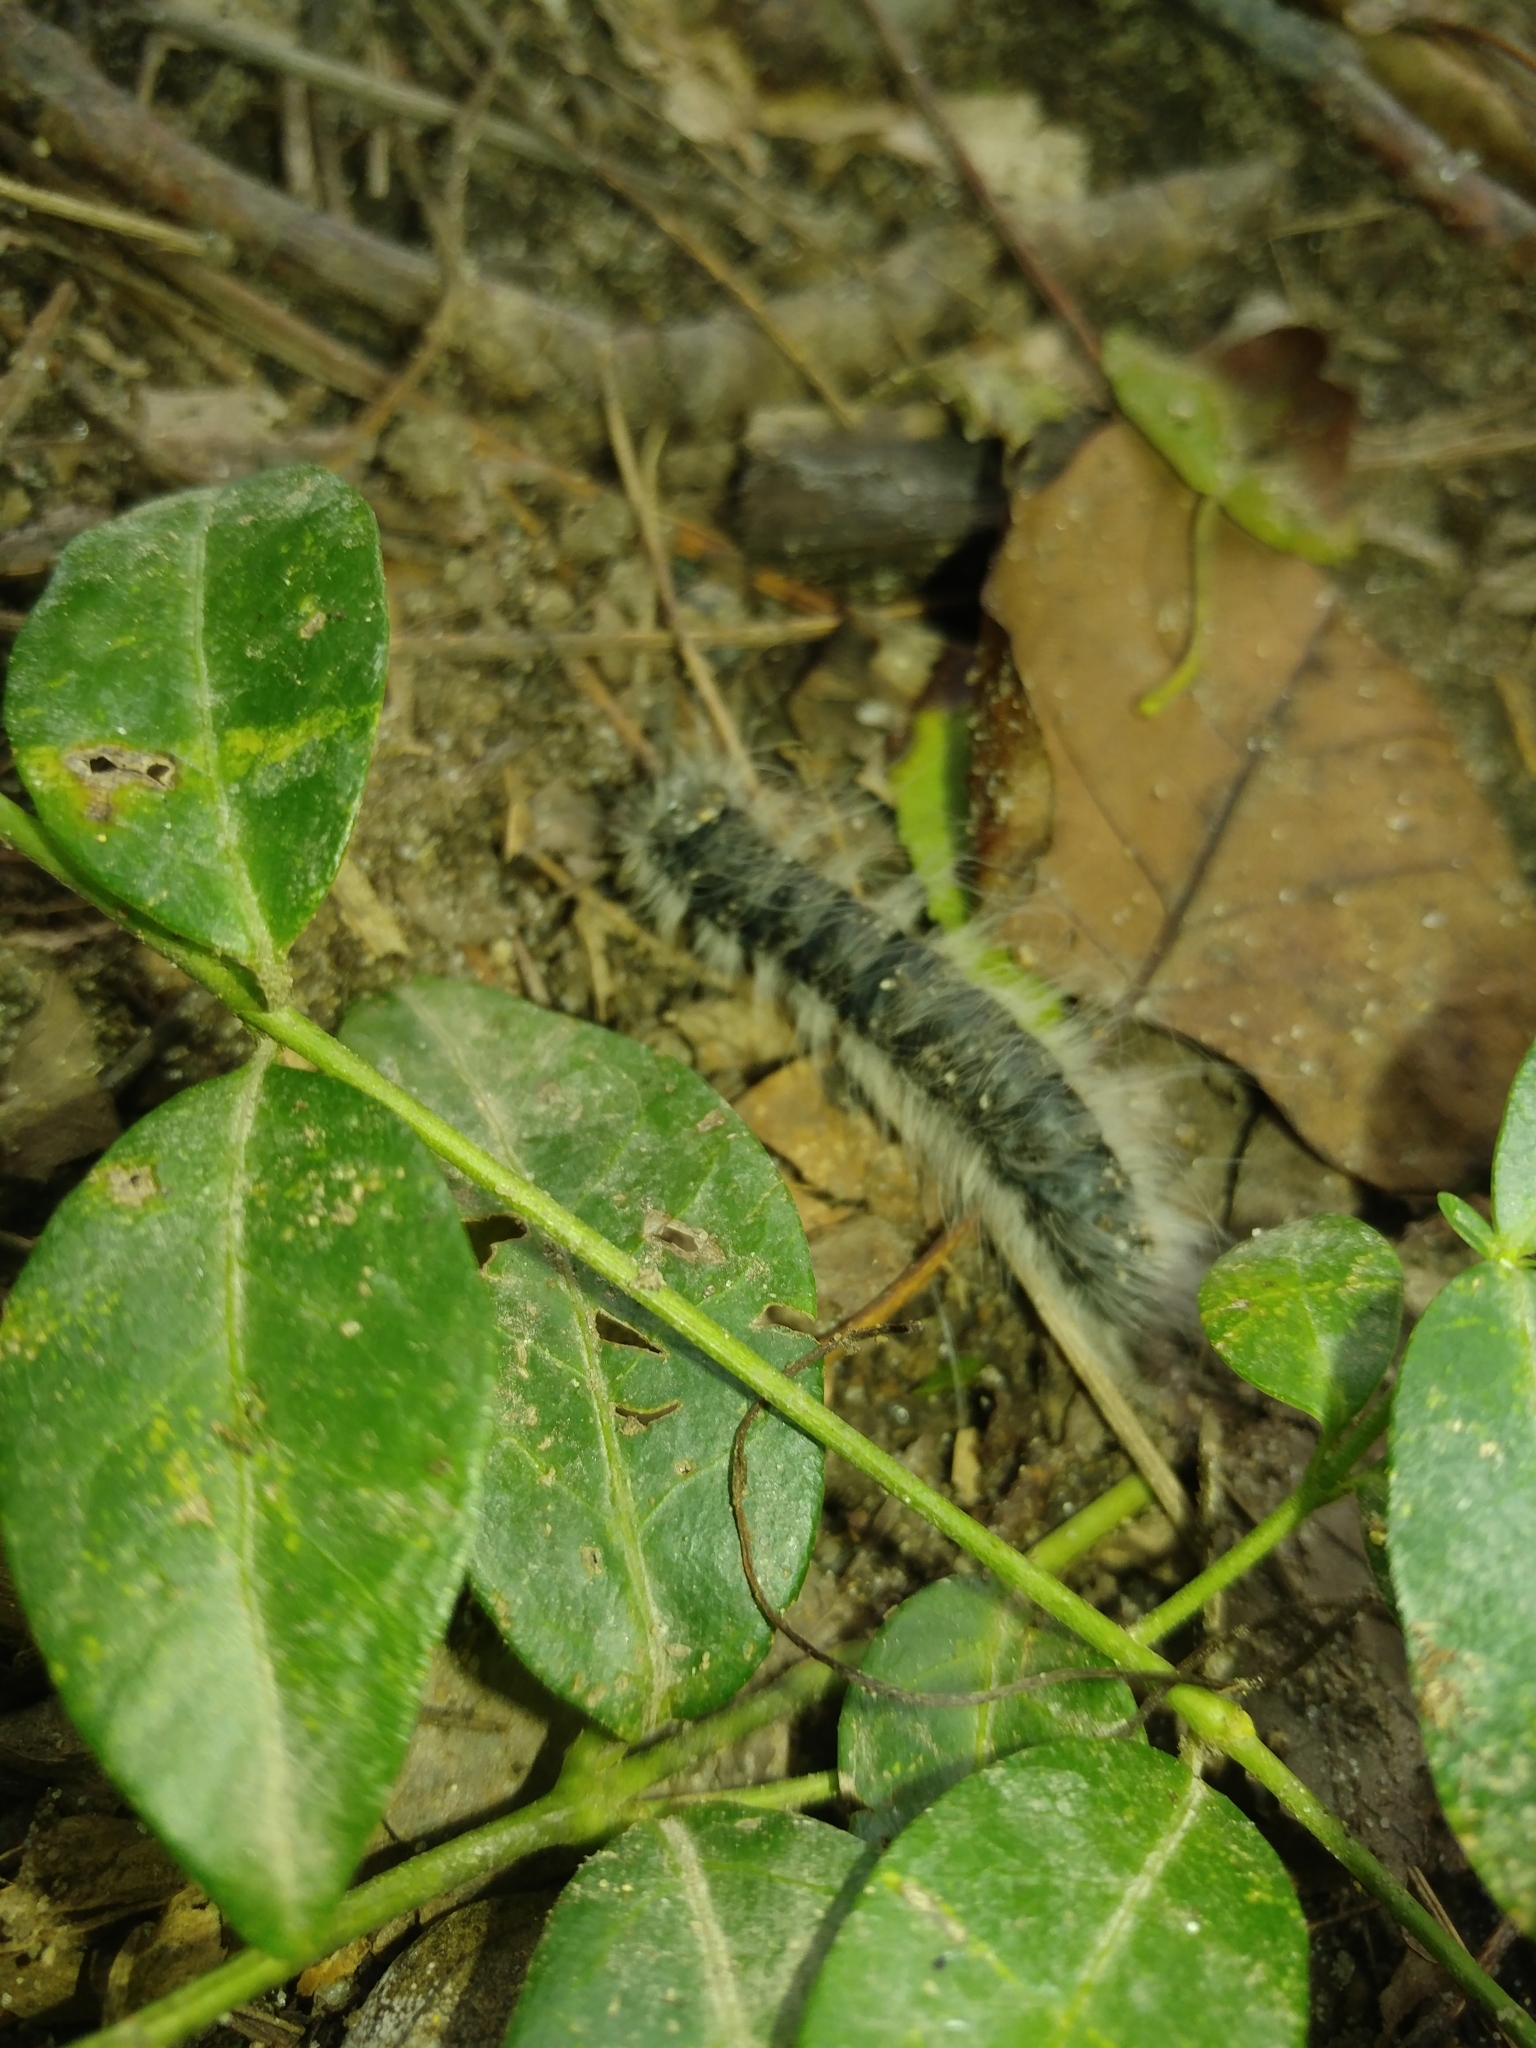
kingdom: Animalia
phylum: Arthropoda
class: Insecta
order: Lepidoptera
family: Notodontidae
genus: Datana
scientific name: Datana integerrima
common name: Walnut caterpillar
